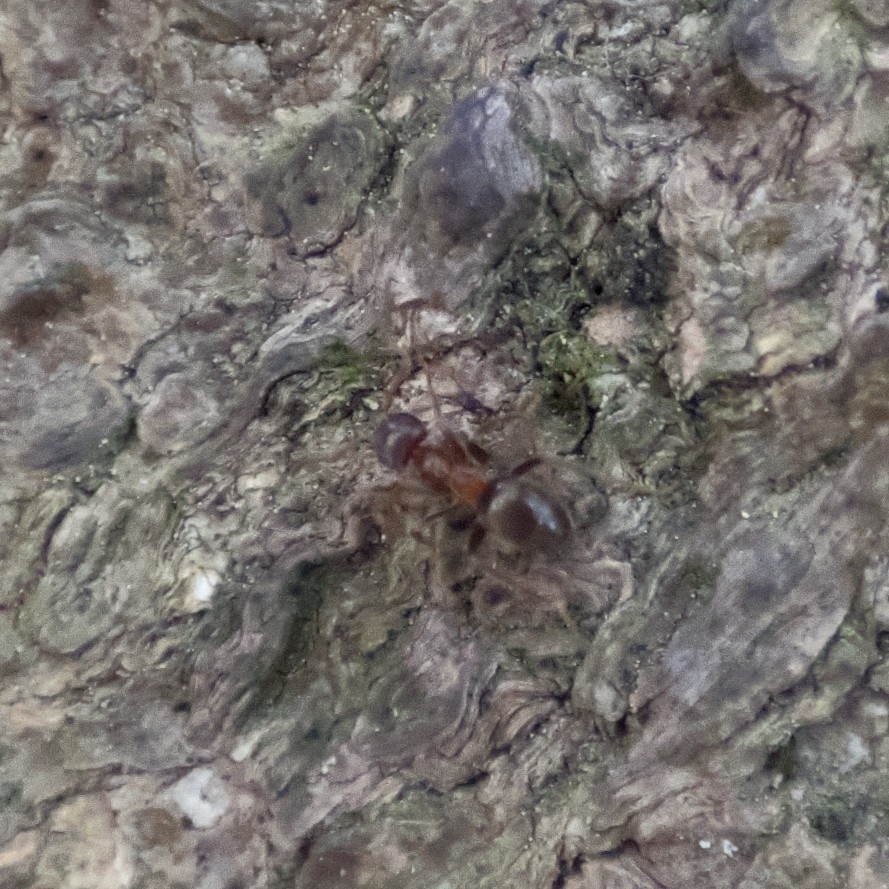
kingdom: Animalia
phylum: Arthropoda
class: Insecta
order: Hymenoptera
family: Formicidae
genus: Lasius
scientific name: Lasius brunneus
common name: Brown ant
